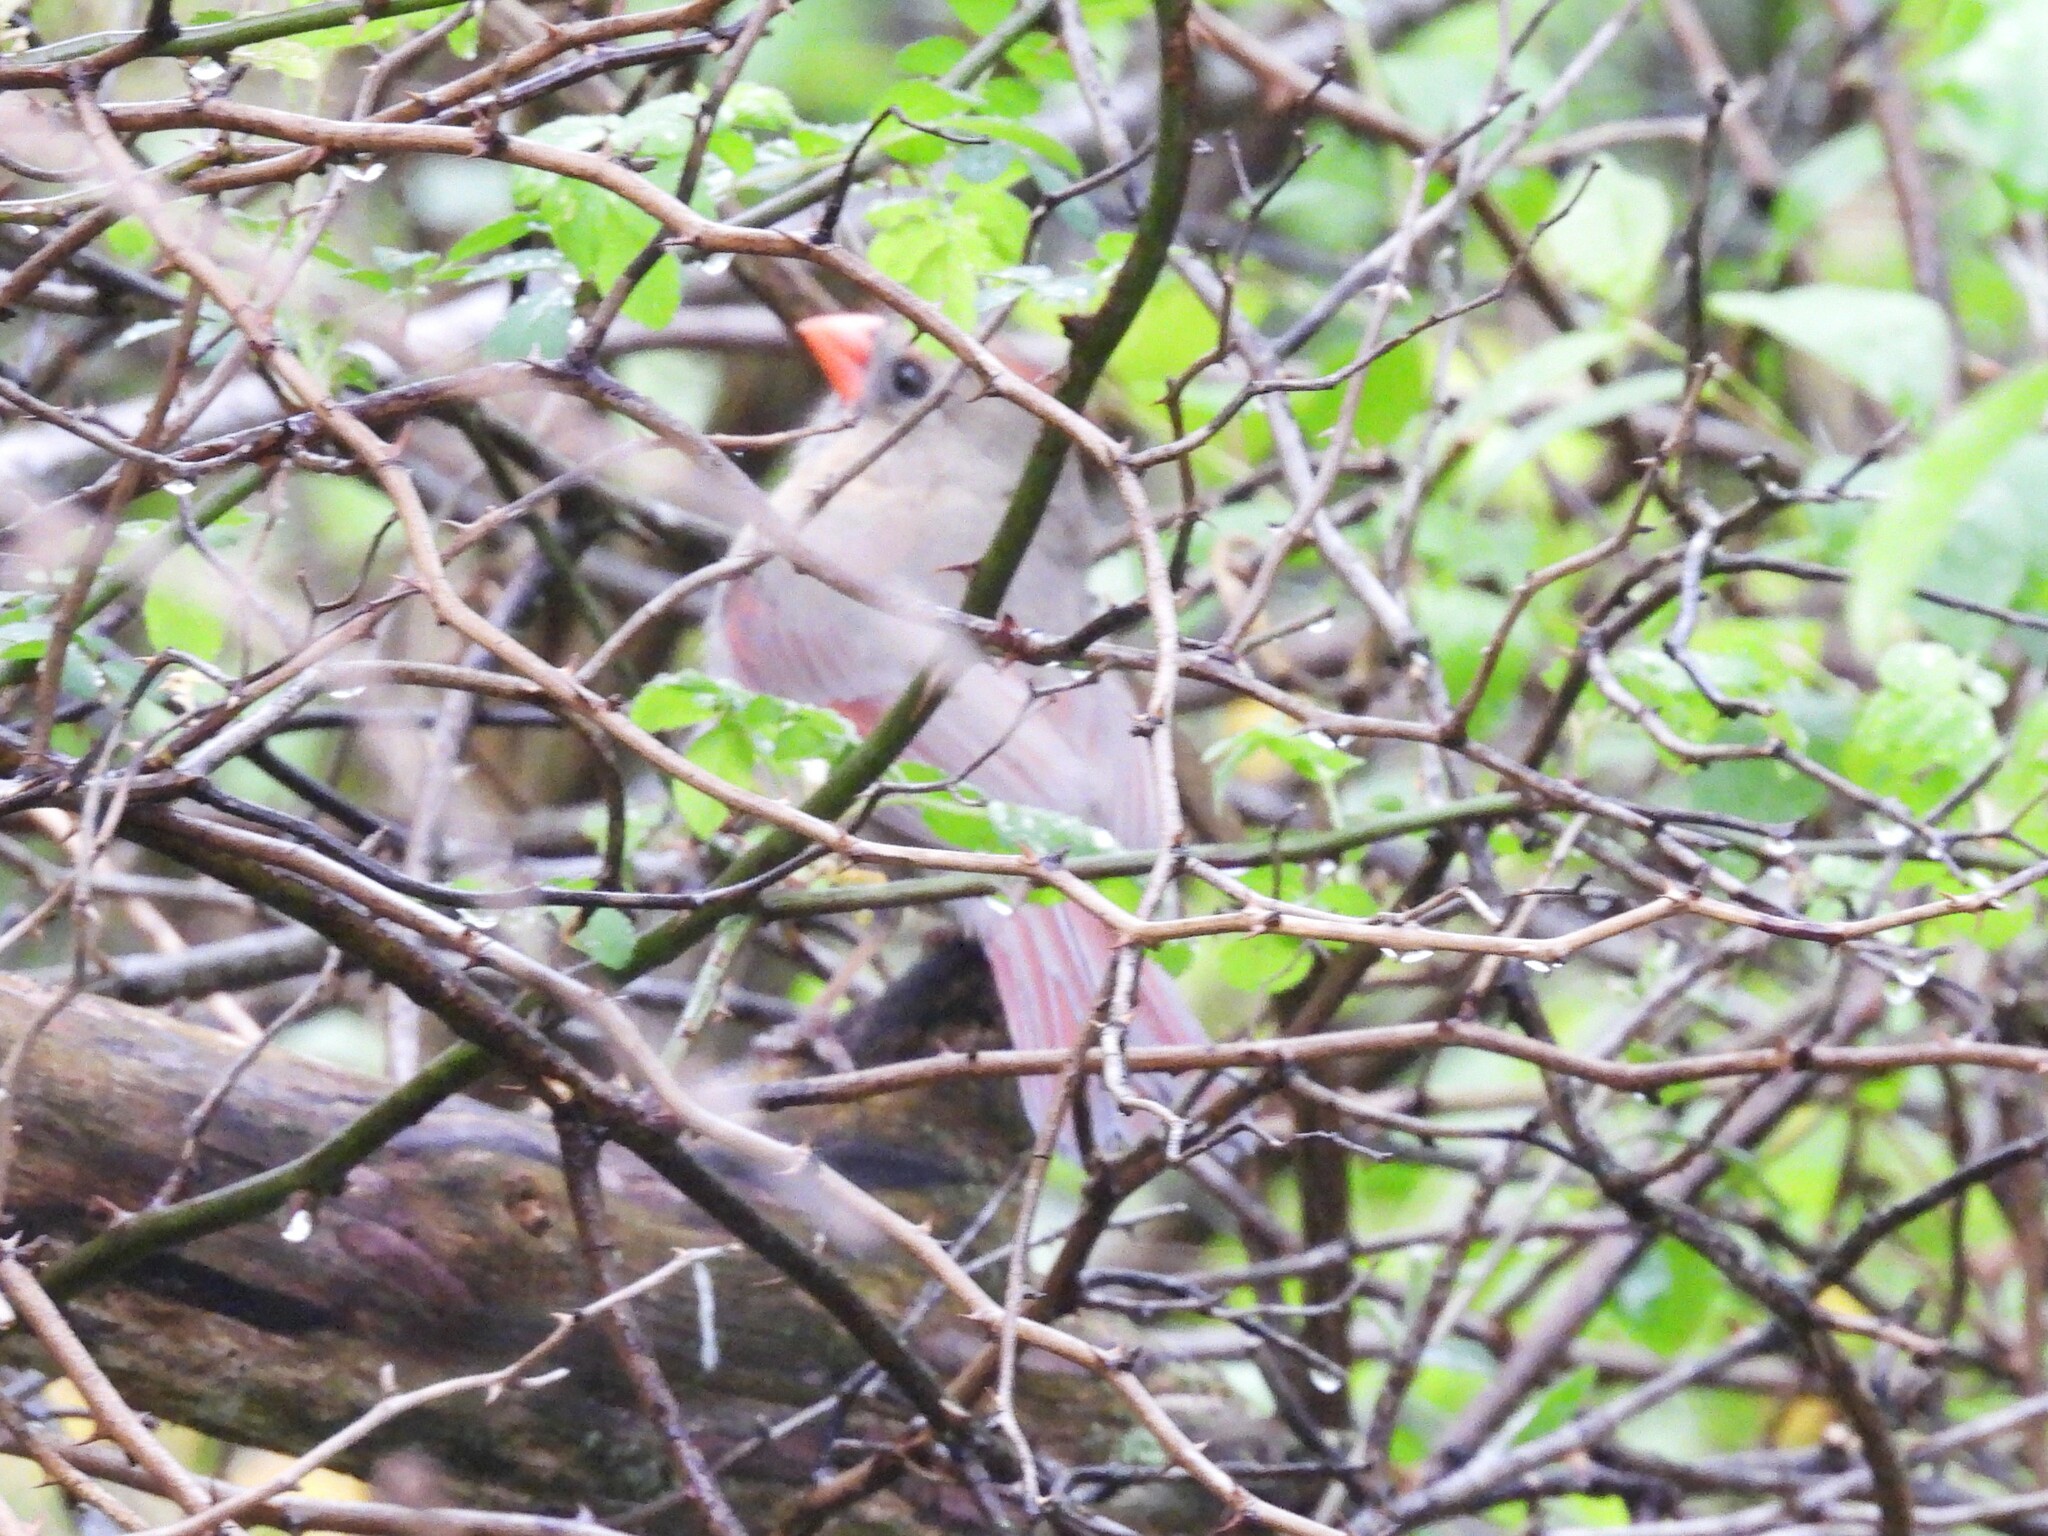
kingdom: Animalia
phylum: Chordata
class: Aves
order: Passeriformes
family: Cardinalidae
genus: Cardinalis
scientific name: Cardinalis cardinalis
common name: Northern cardinal
